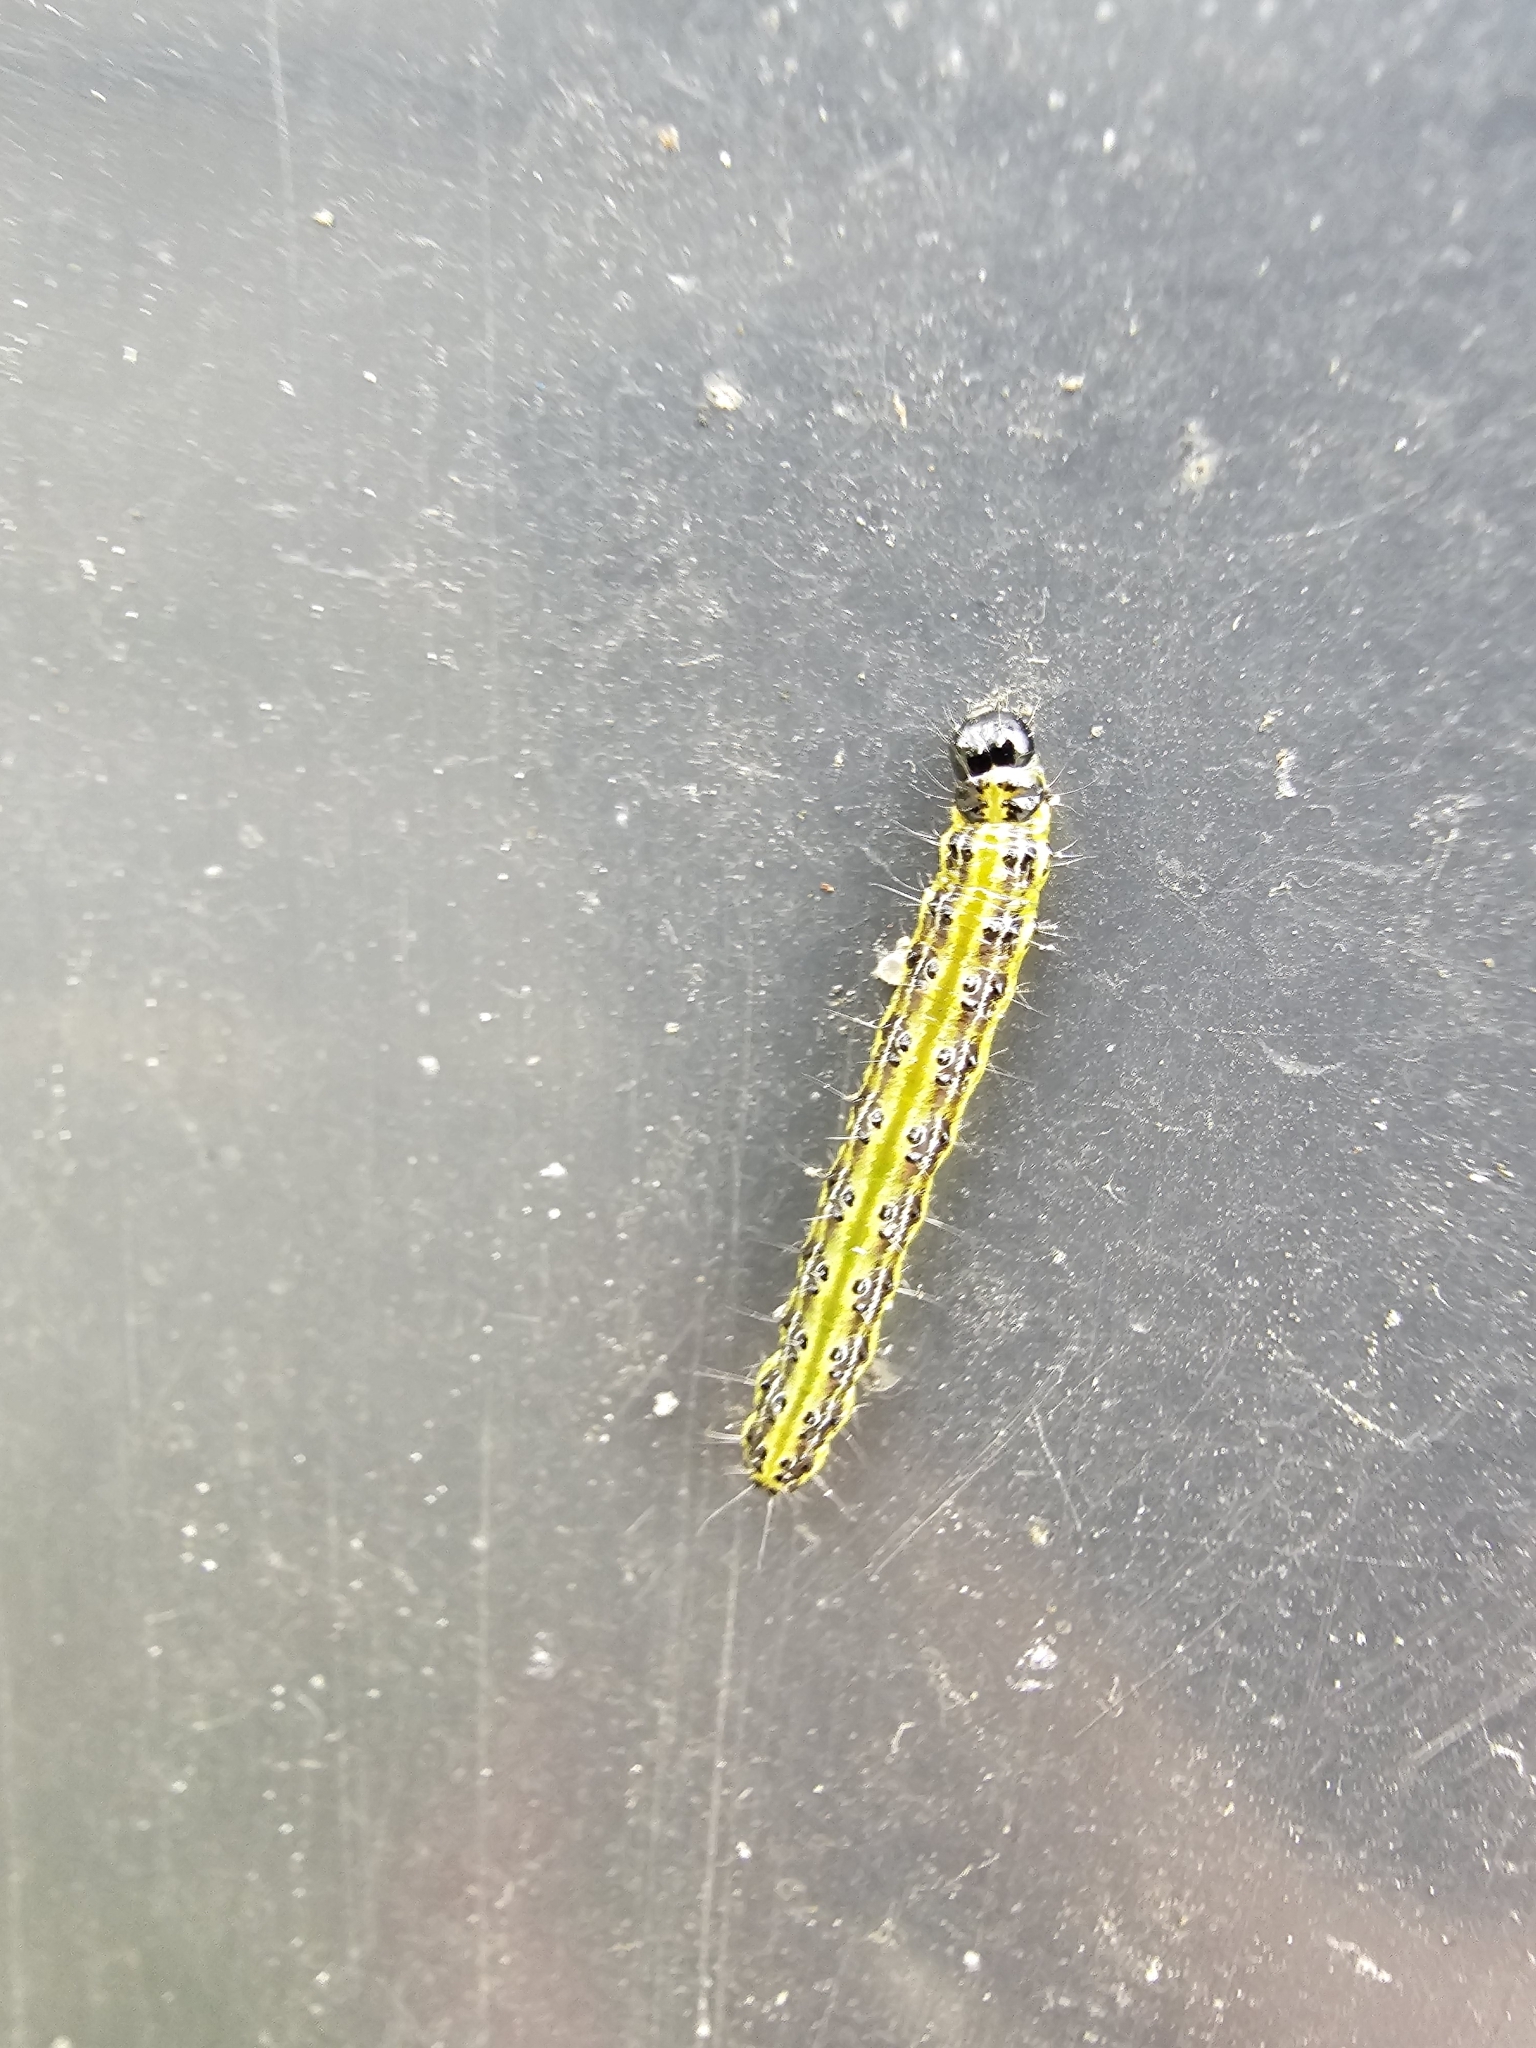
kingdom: Animalia
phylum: Arthropoda
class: Insecta
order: Lepidoptera
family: Crambidae
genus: Cydalima
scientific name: Cydalima perspectalis
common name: Box tree moth
